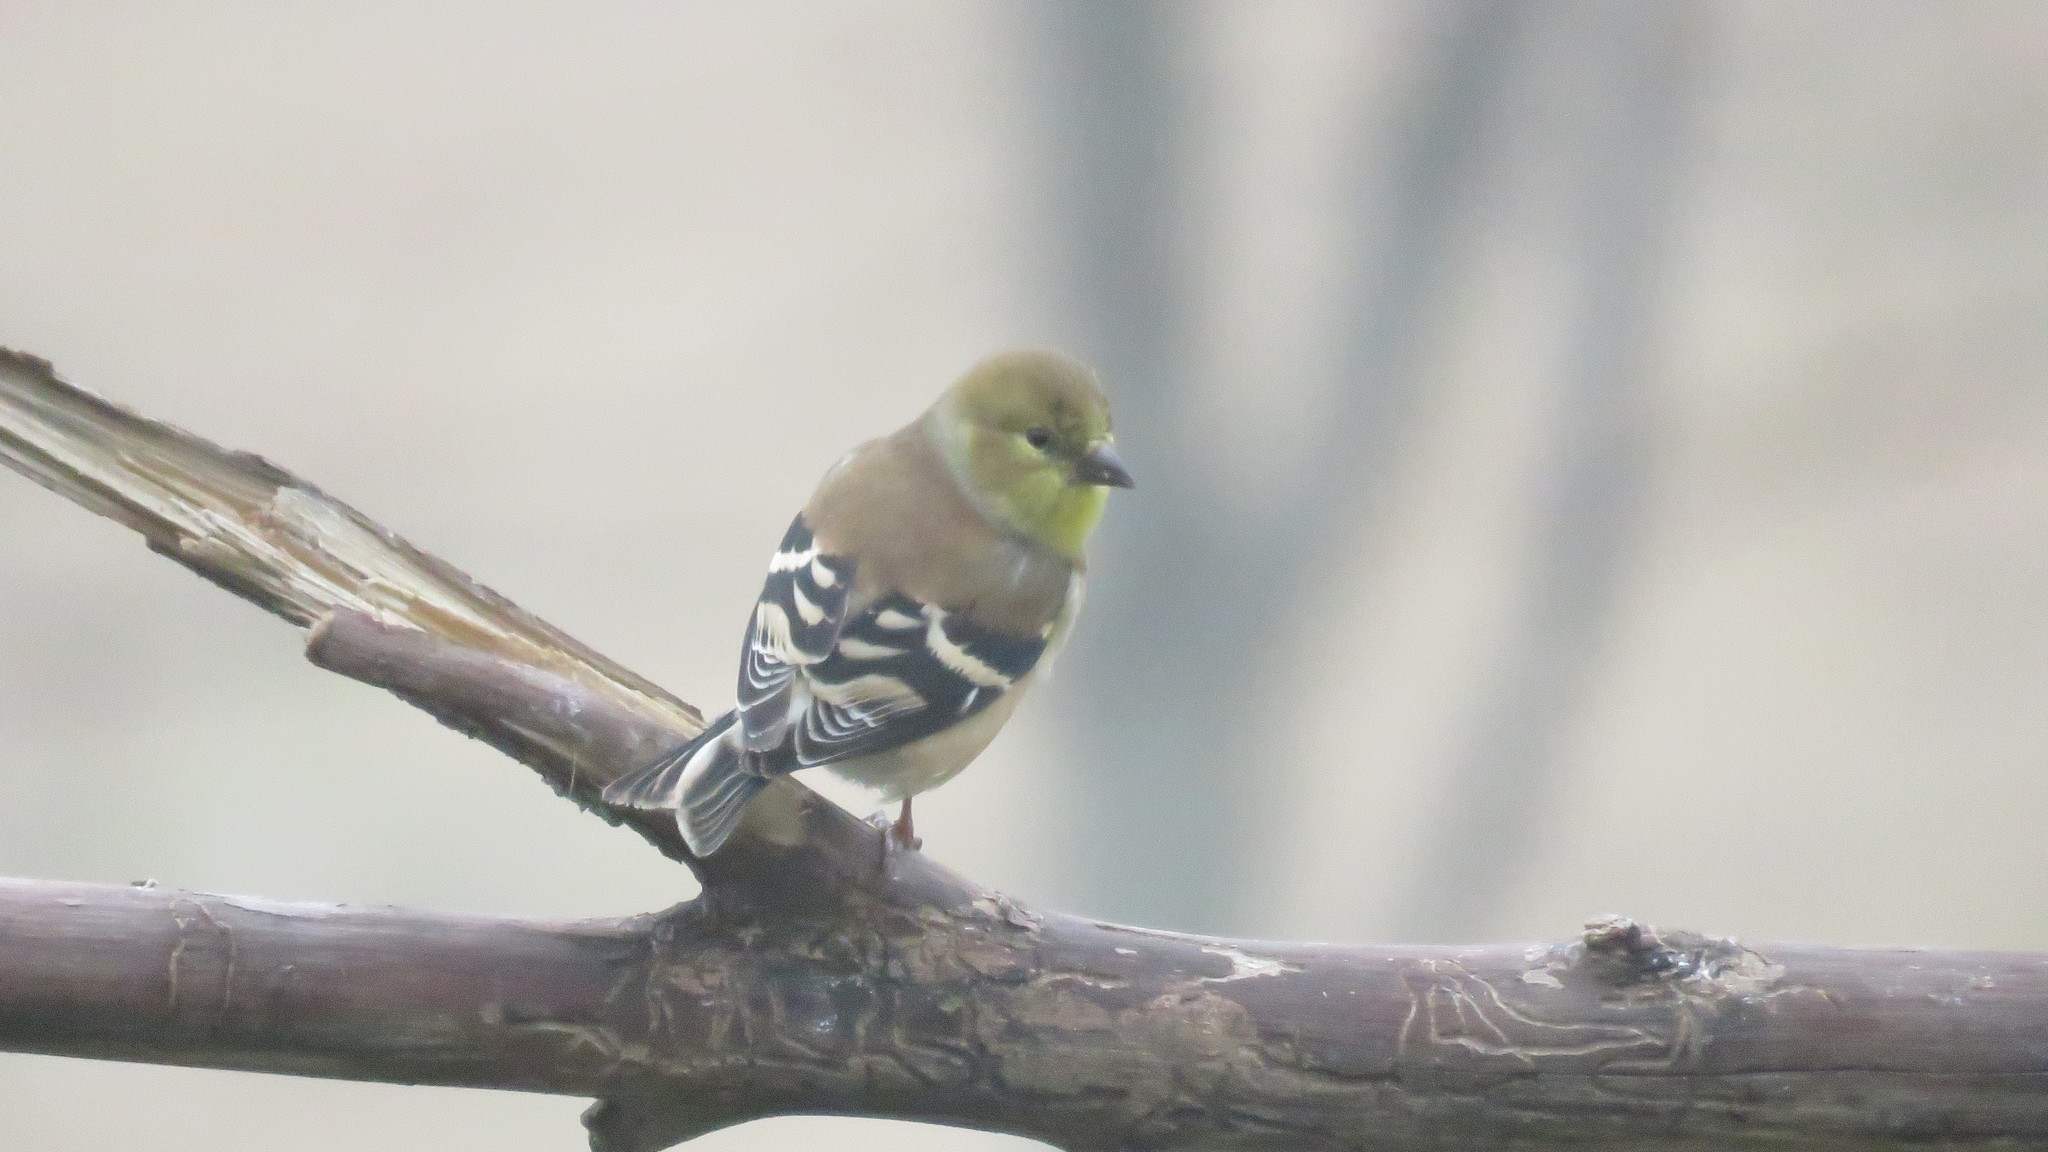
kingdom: Animalia
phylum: Chordata
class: Aves
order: Passeriformes
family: Fringillidae
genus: Spinus
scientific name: Spinus tristis
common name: American goldfinch
